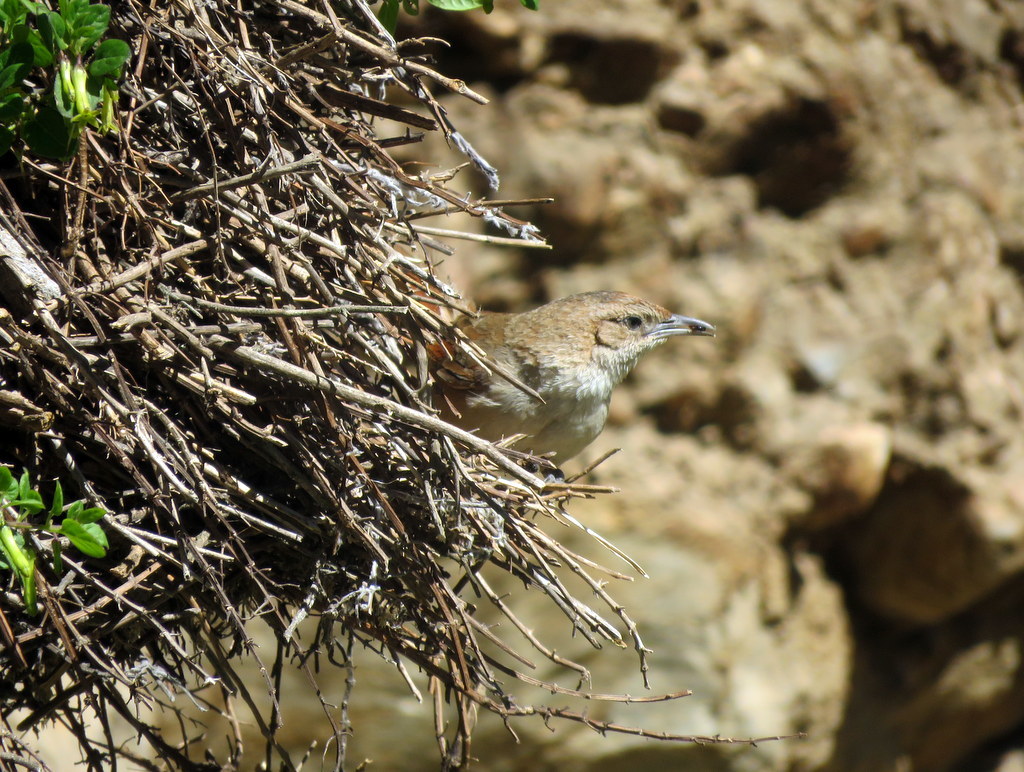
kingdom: Animalia
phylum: Chordata
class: Aves
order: Passeriformes
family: Furnariidae
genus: Phacellodomus
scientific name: Phacellodomus striaticeps
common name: Streak-fronted thornbird
